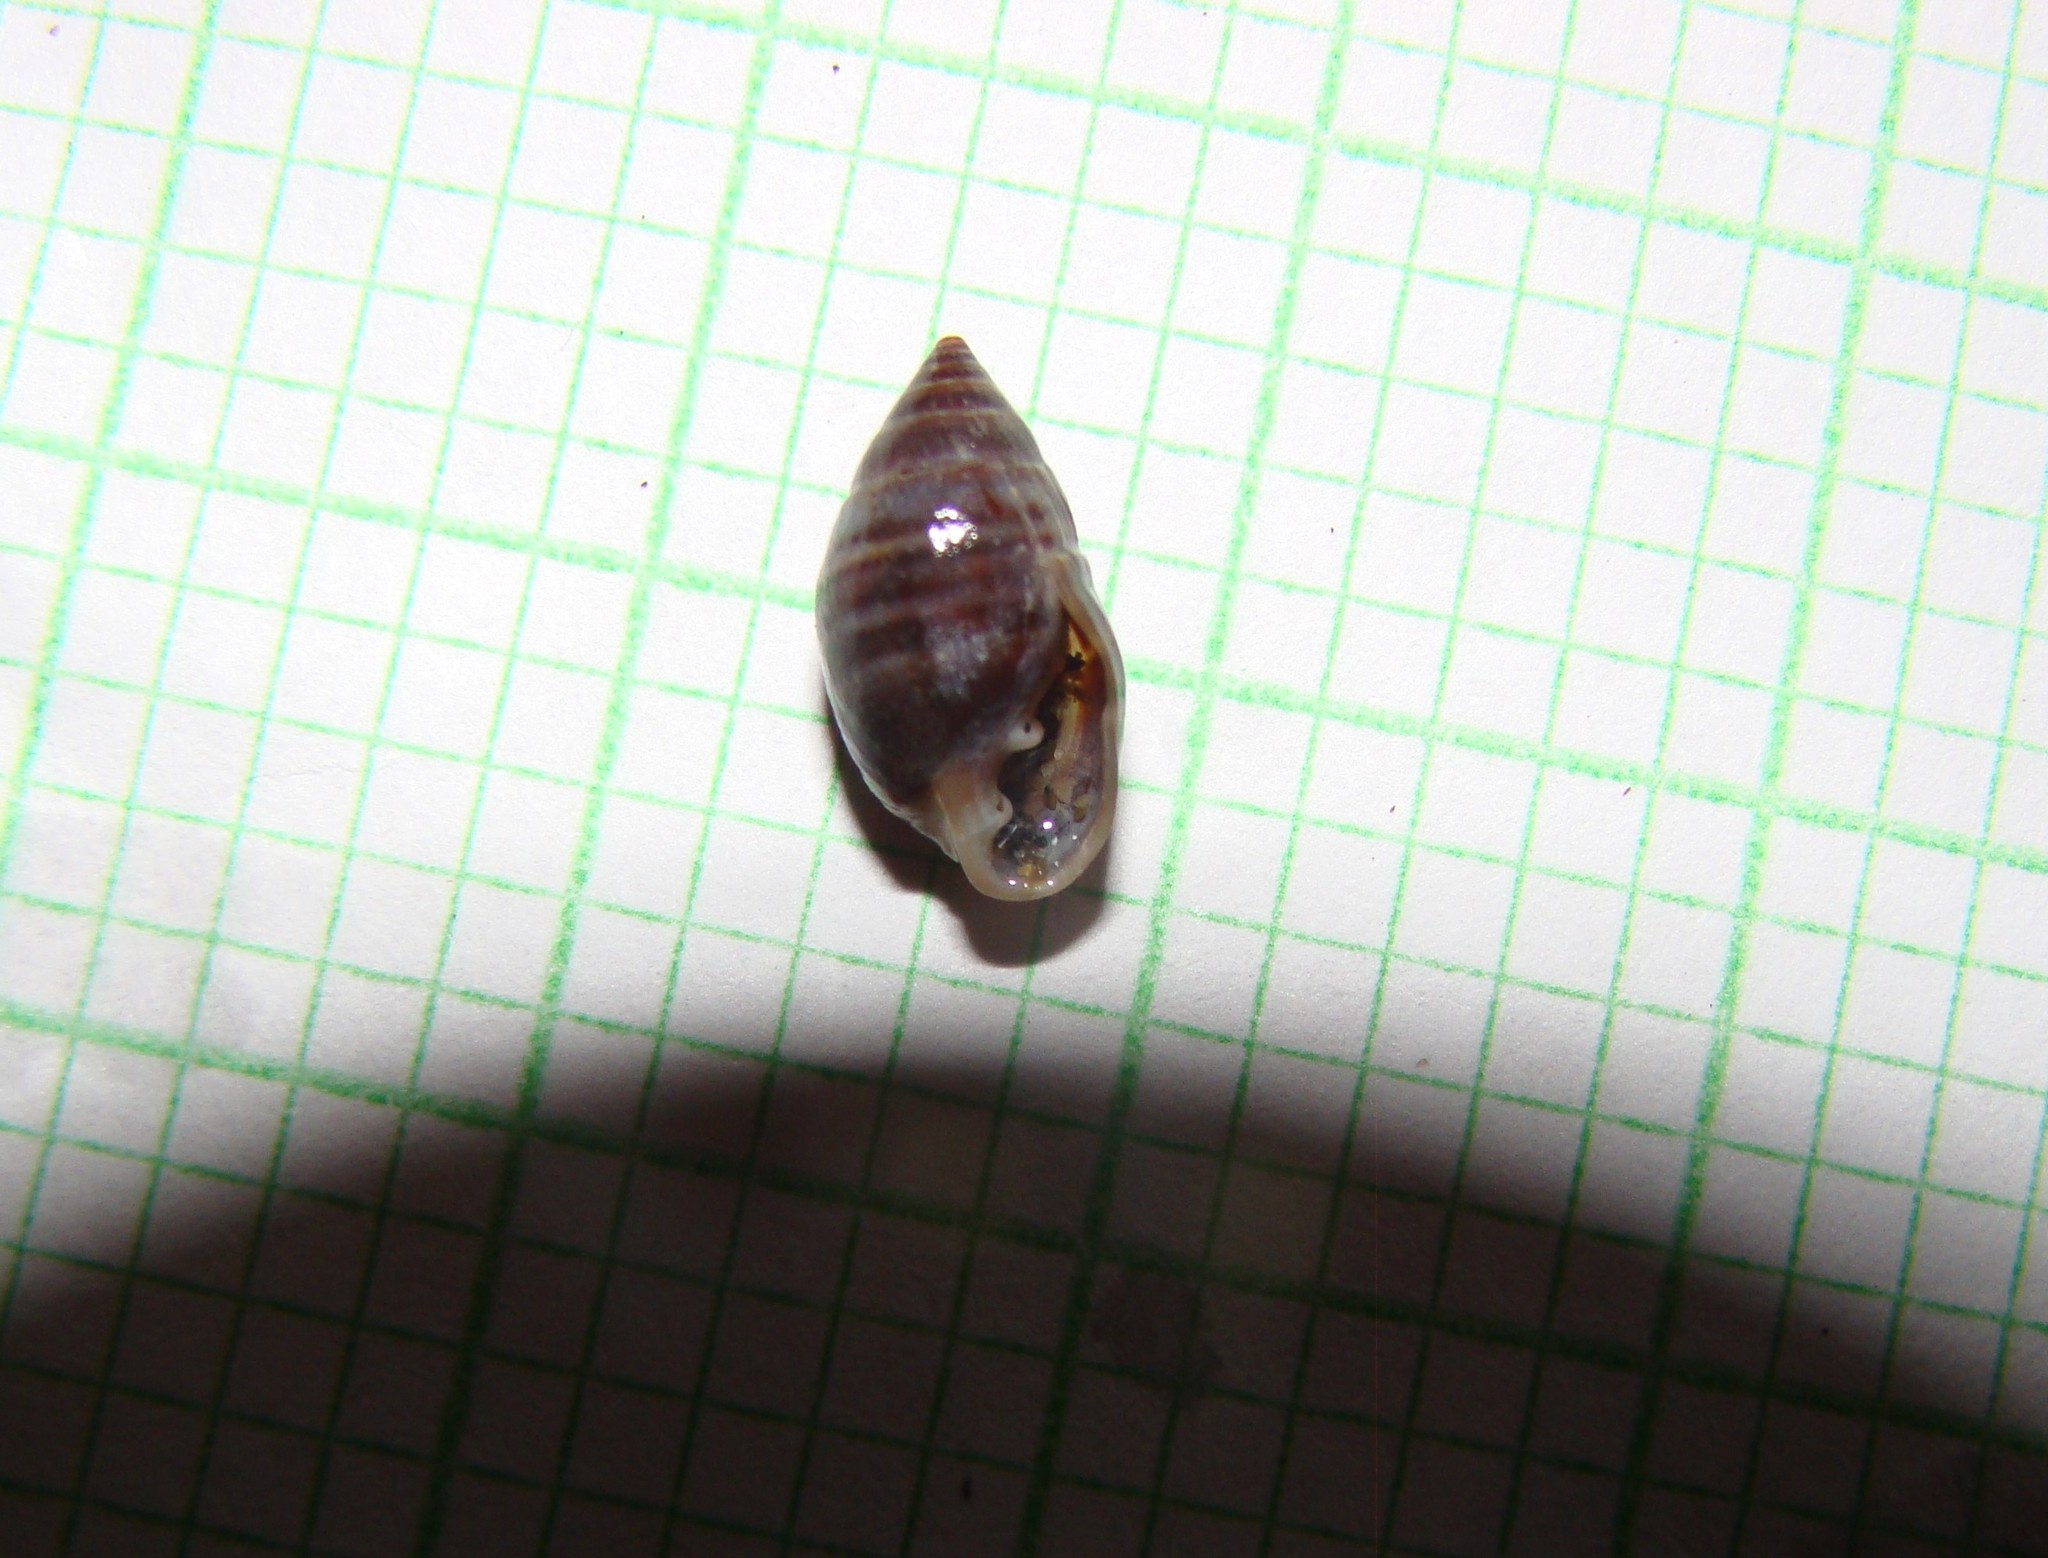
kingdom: Animalia
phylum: Mollusca
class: Gastropoda
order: Ellobiida
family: Ellobiidae
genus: Pleuroloba
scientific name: Pleuroloba costellaris
